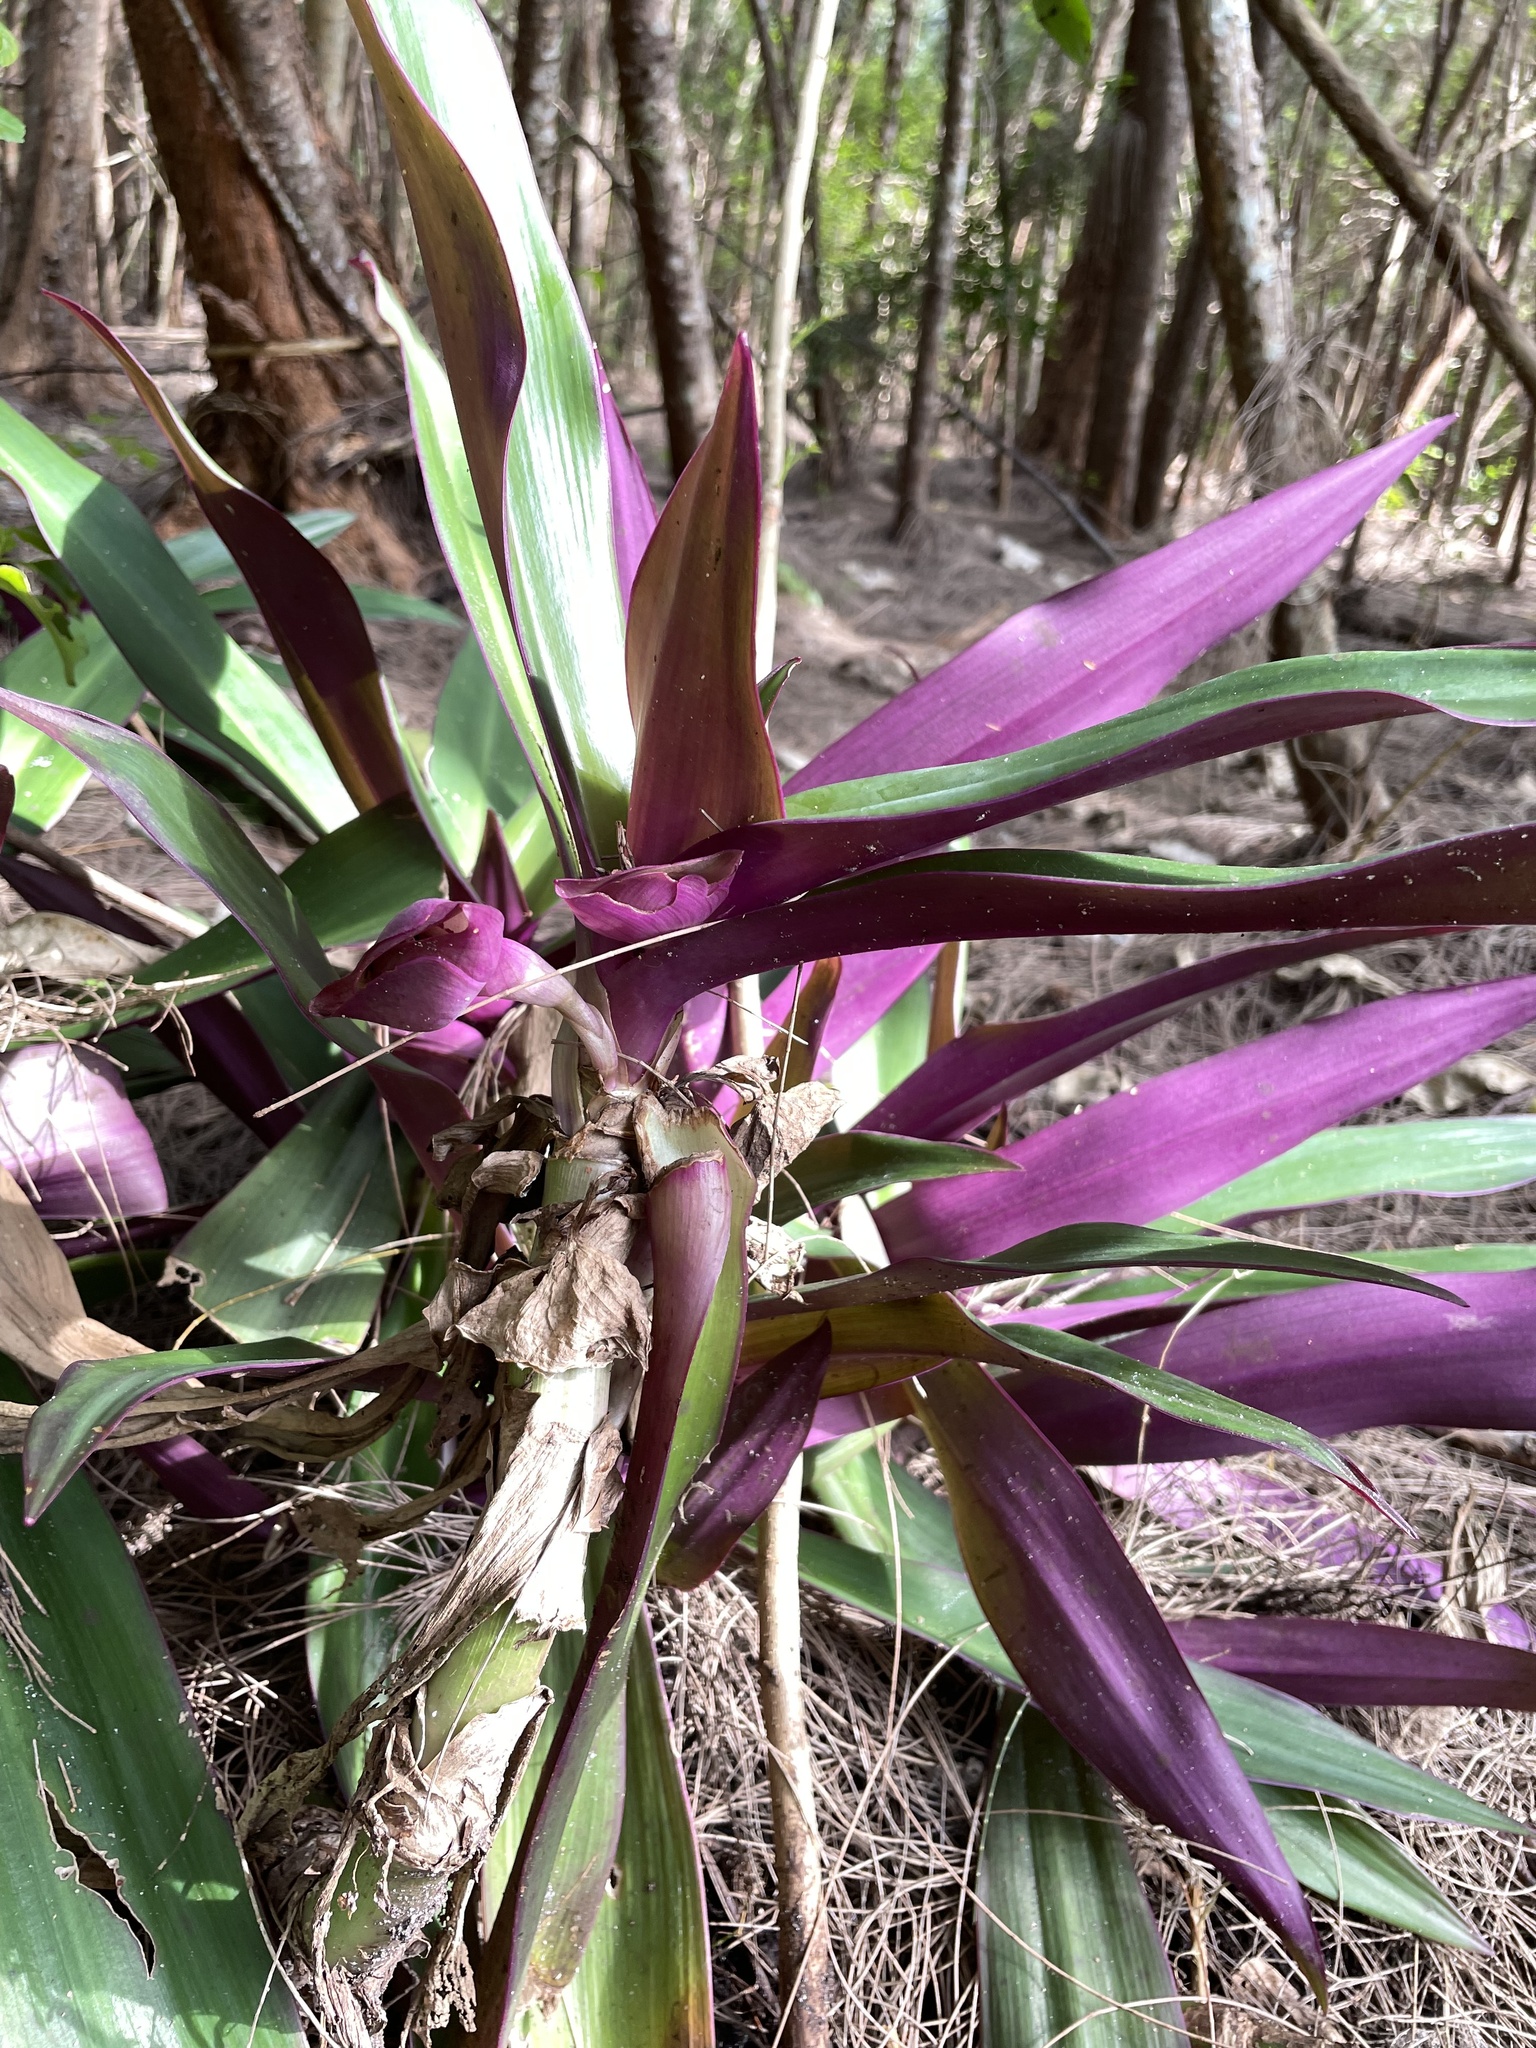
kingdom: Plantae
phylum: Tracheophyta
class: Liliopsida
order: Commelinales
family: Commelinaceae
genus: Tradescantia
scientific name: Tradescantia spathacea
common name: Boatlily
